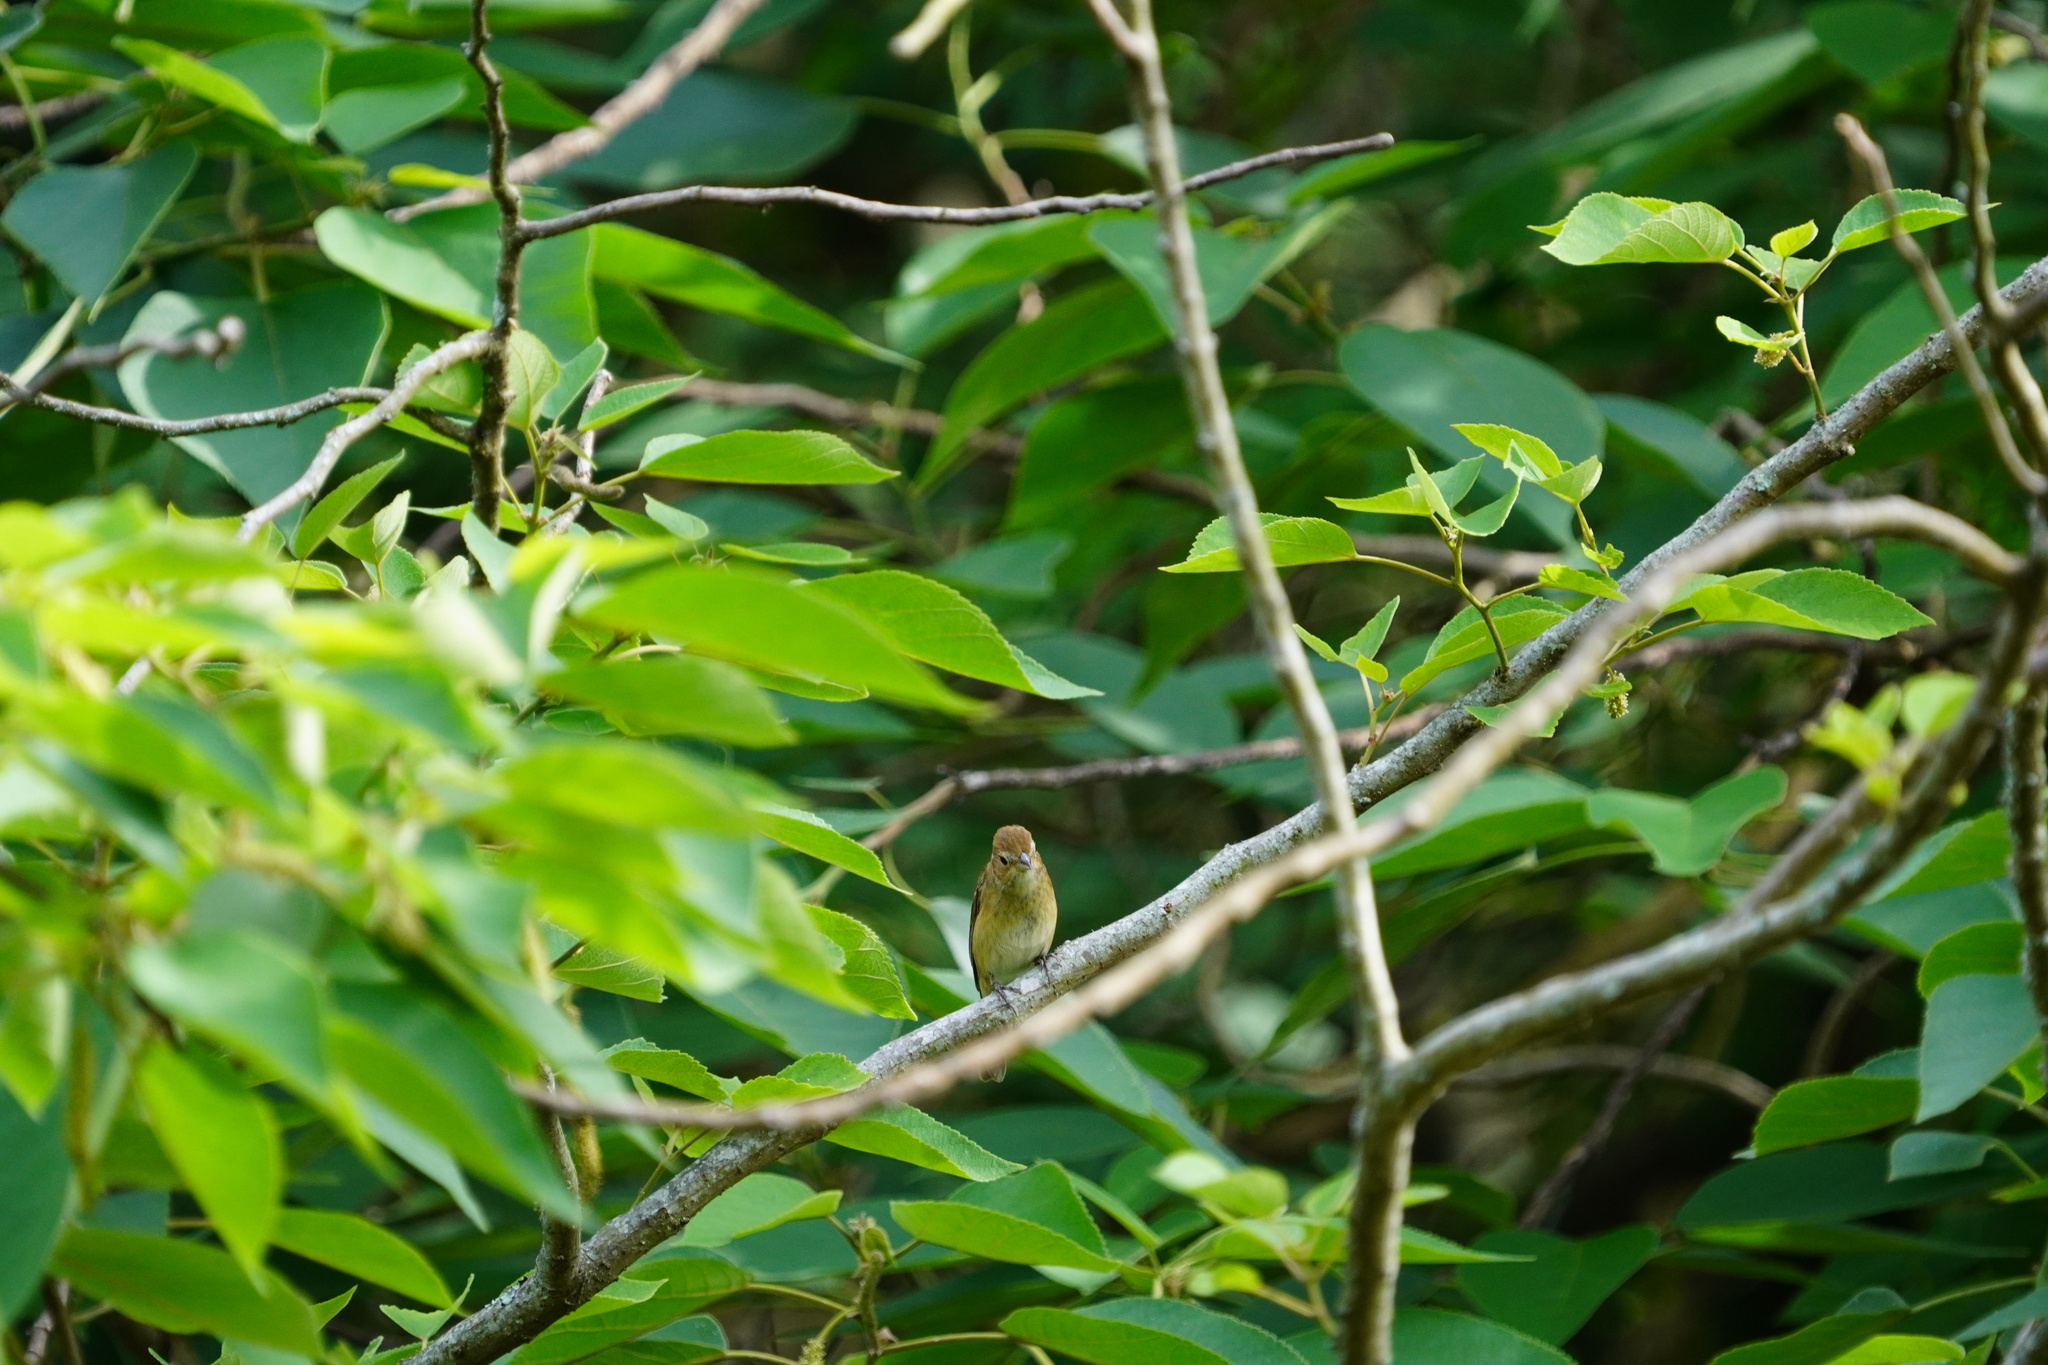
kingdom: Animalia
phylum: Chordata
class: Aves
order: Passeriformes
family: Cardinalidae
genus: Passerina
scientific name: Passerina cyanea
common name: Indigo bunting
